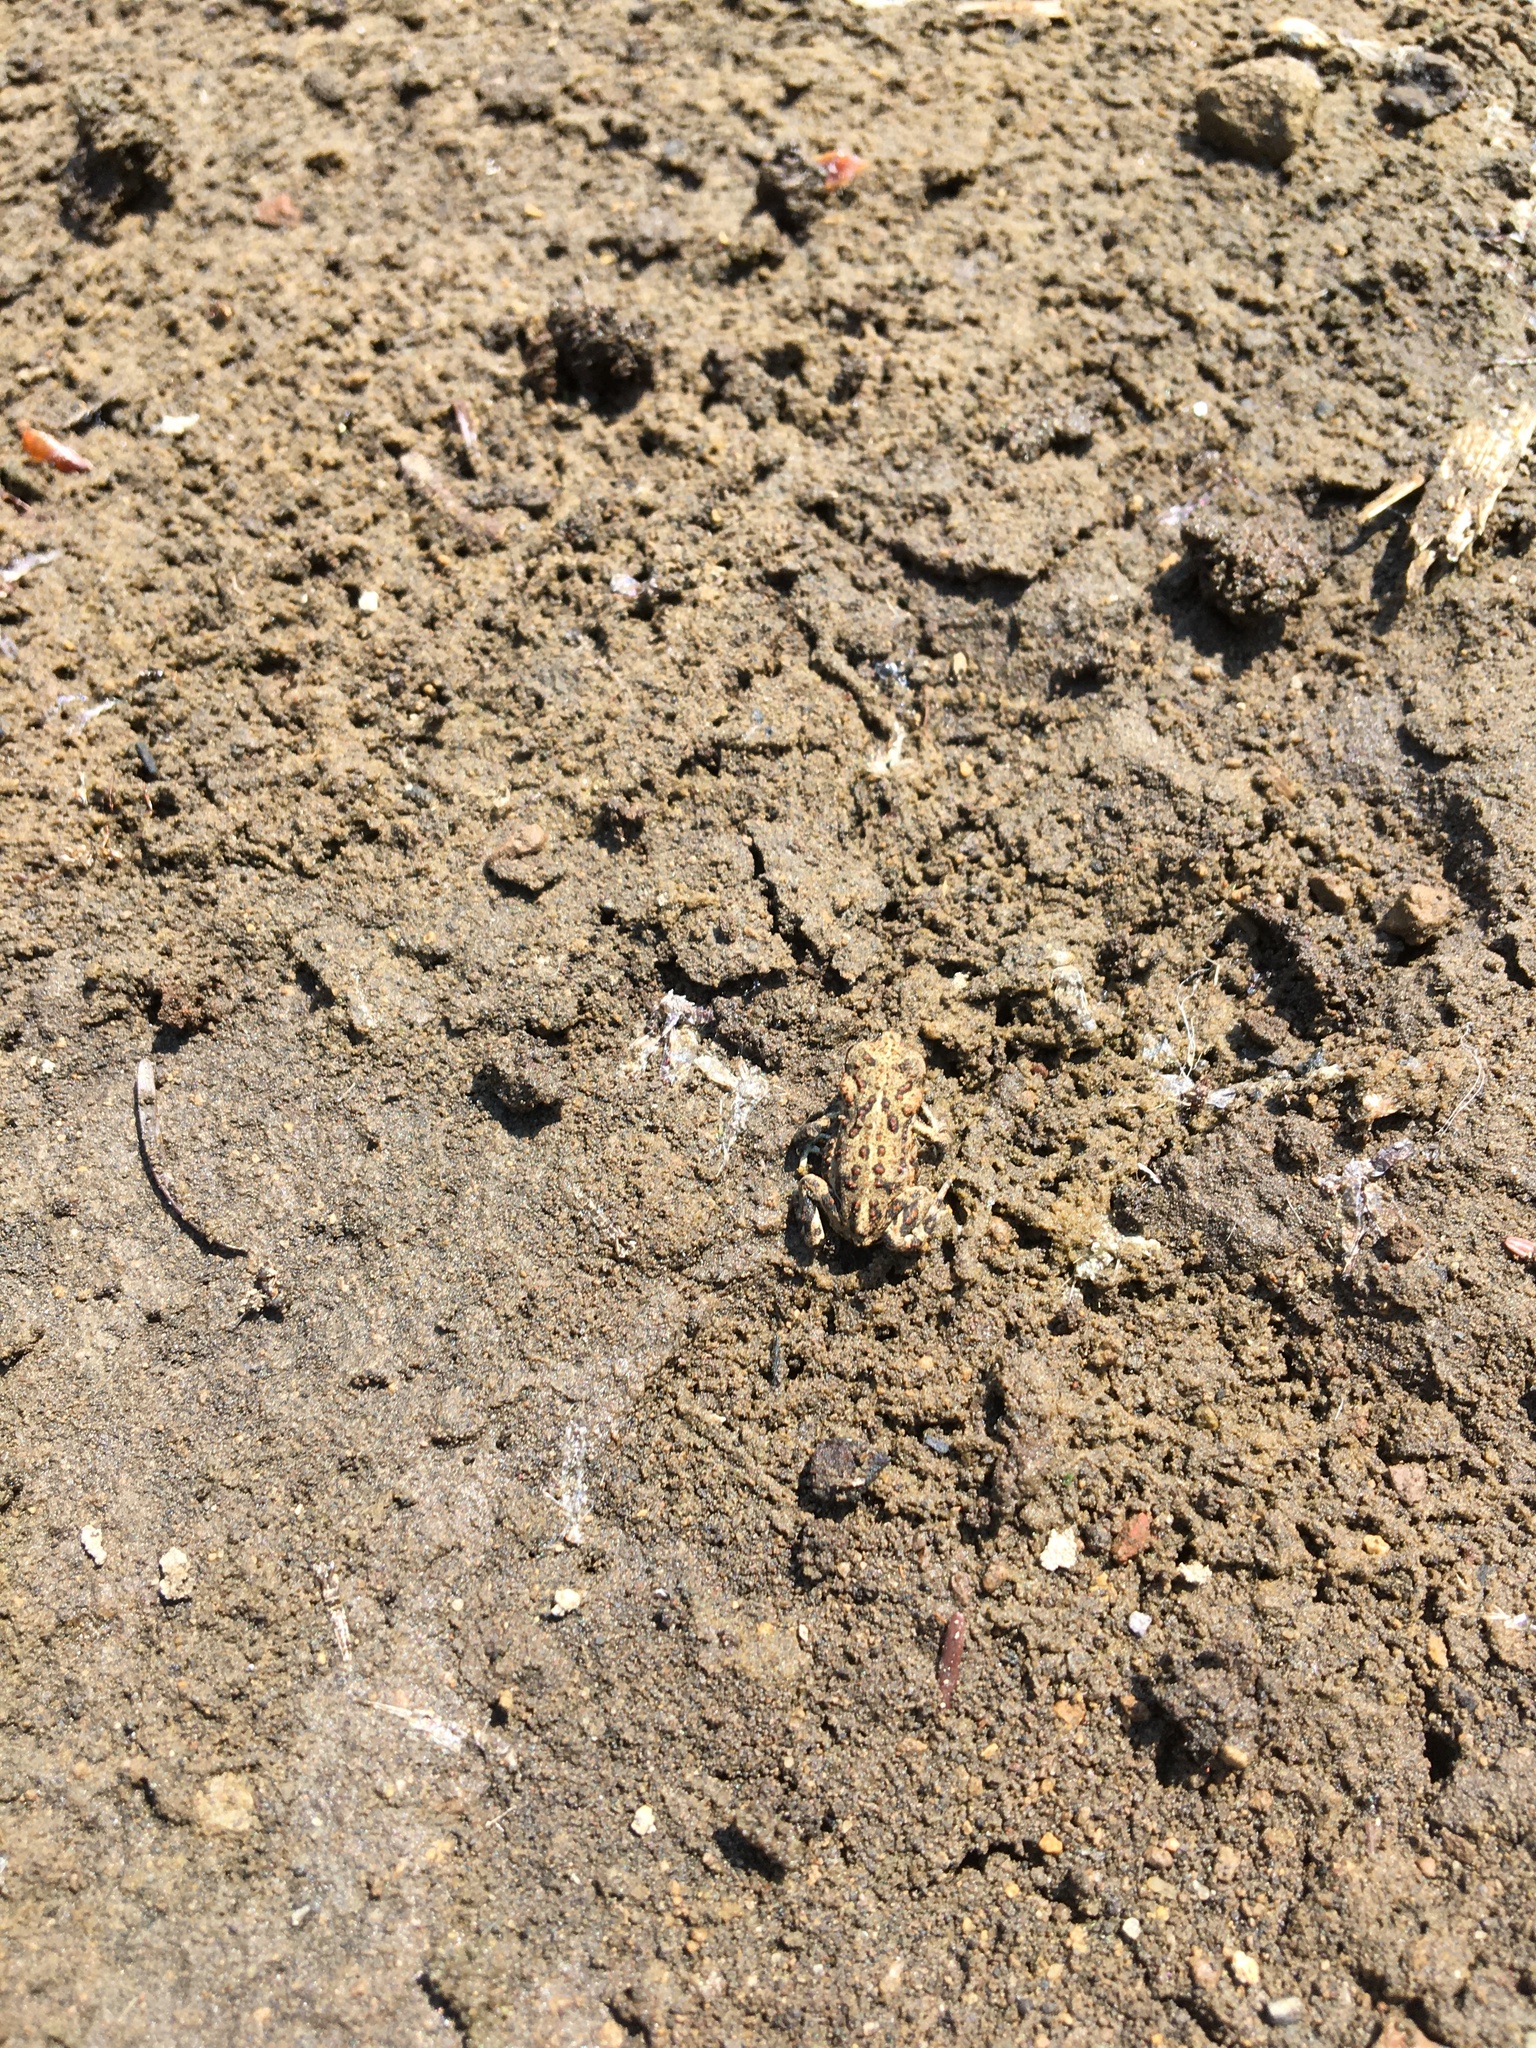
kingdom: Animalia
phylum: Chordata
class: Amphibia
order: Anura
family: Bufonidae
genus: Anaxyrus
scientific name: Anaxyrus boreas
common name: Western toad
